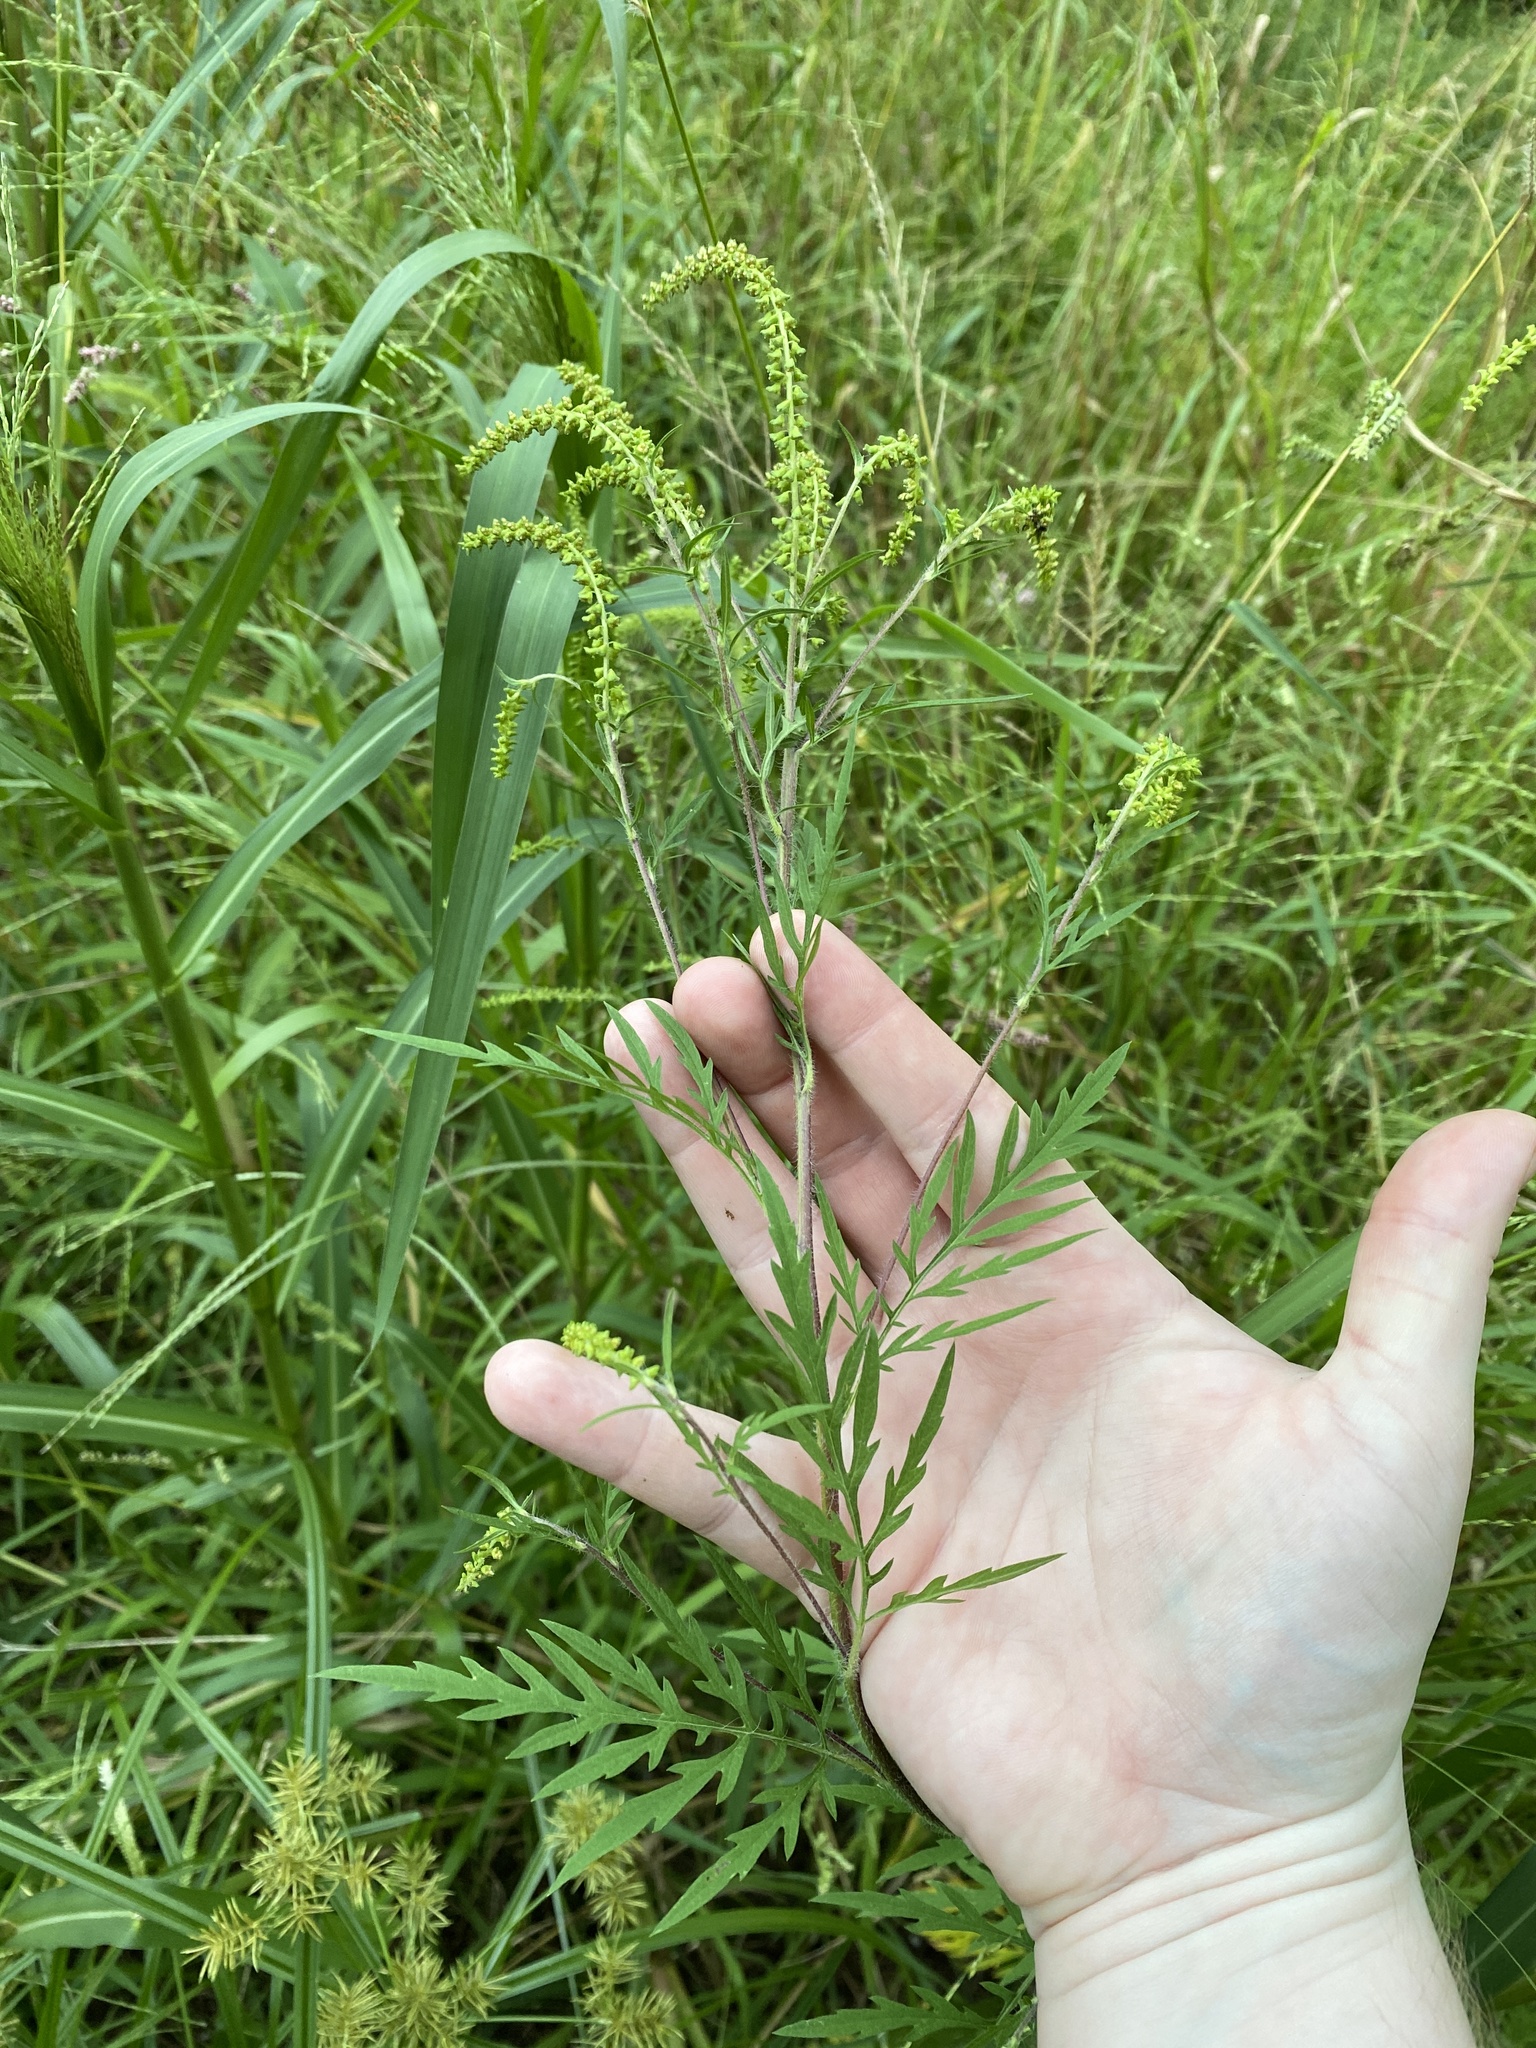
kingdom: Plantae
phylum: Tracheophyta
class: Magnoliopsida
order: Asterales
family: Asteraceae
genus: Ambrosia
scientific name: Ambrosia artemisiifolia
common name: Annual ragweed
